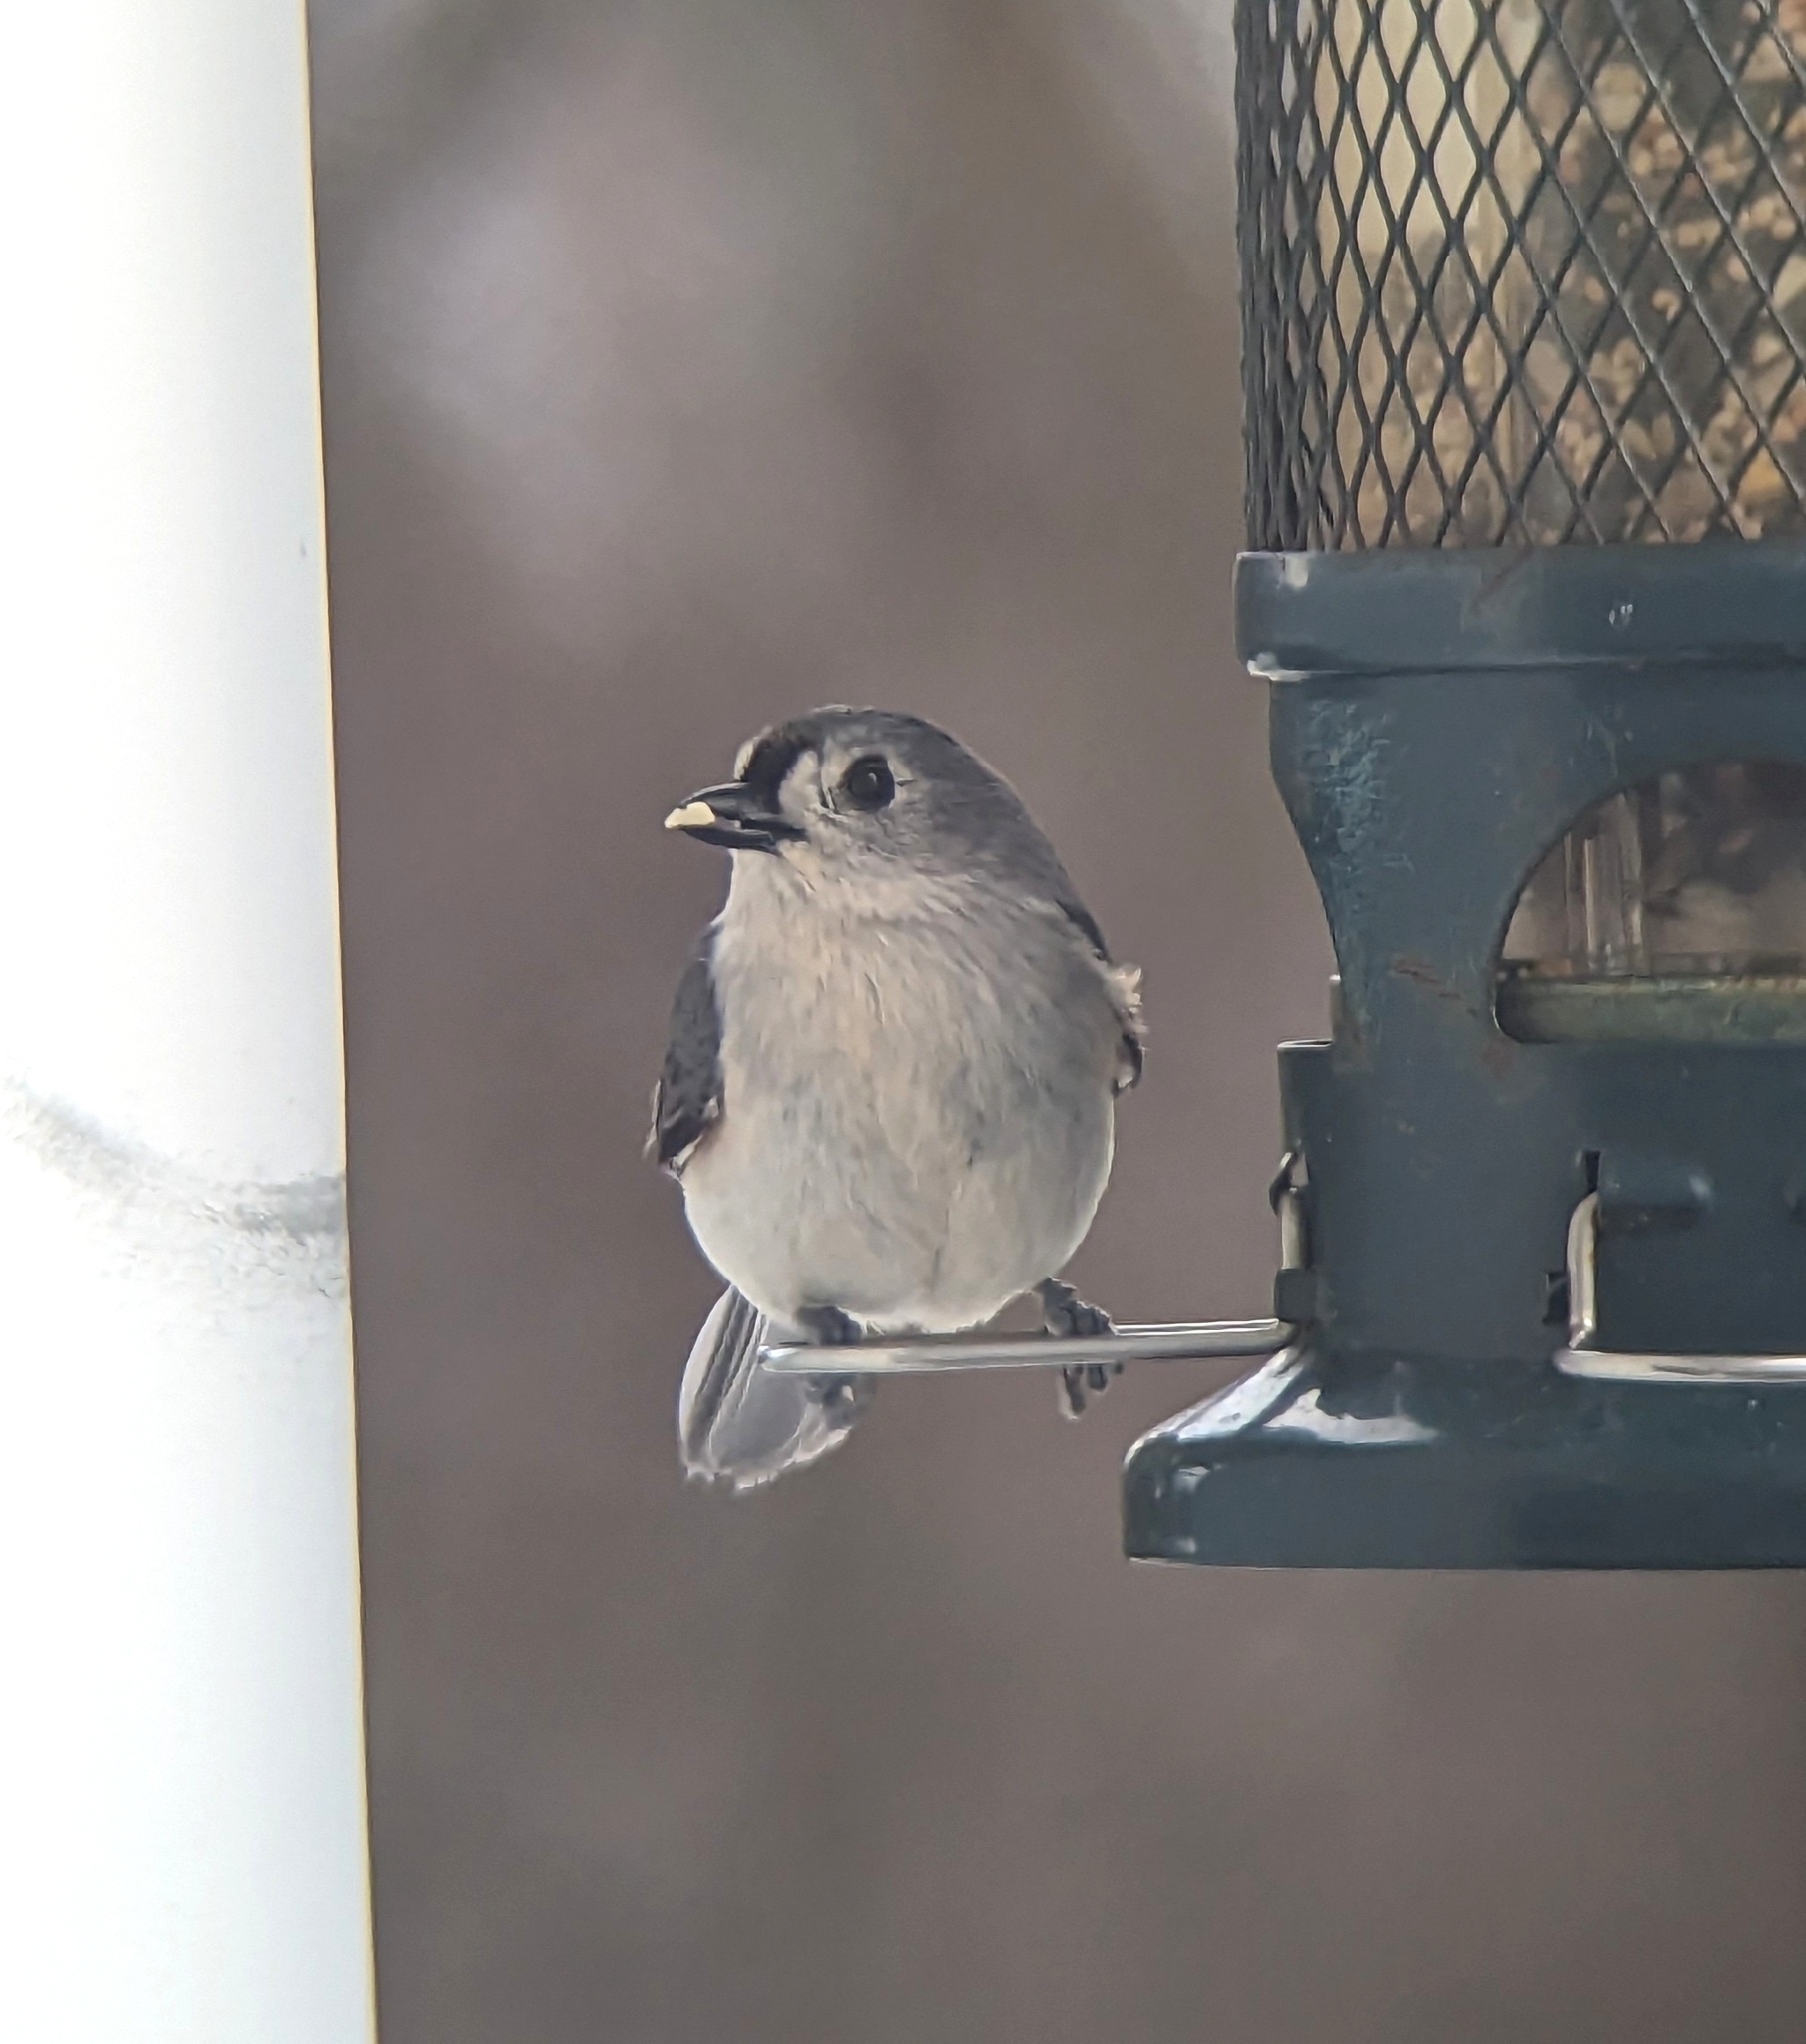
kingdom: Animalia
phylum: Chordata
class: Aves
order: Passeriformes
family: Paridae
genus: Baeolophus
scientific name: Baeolophus bicolor
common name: Tufted titmouse
